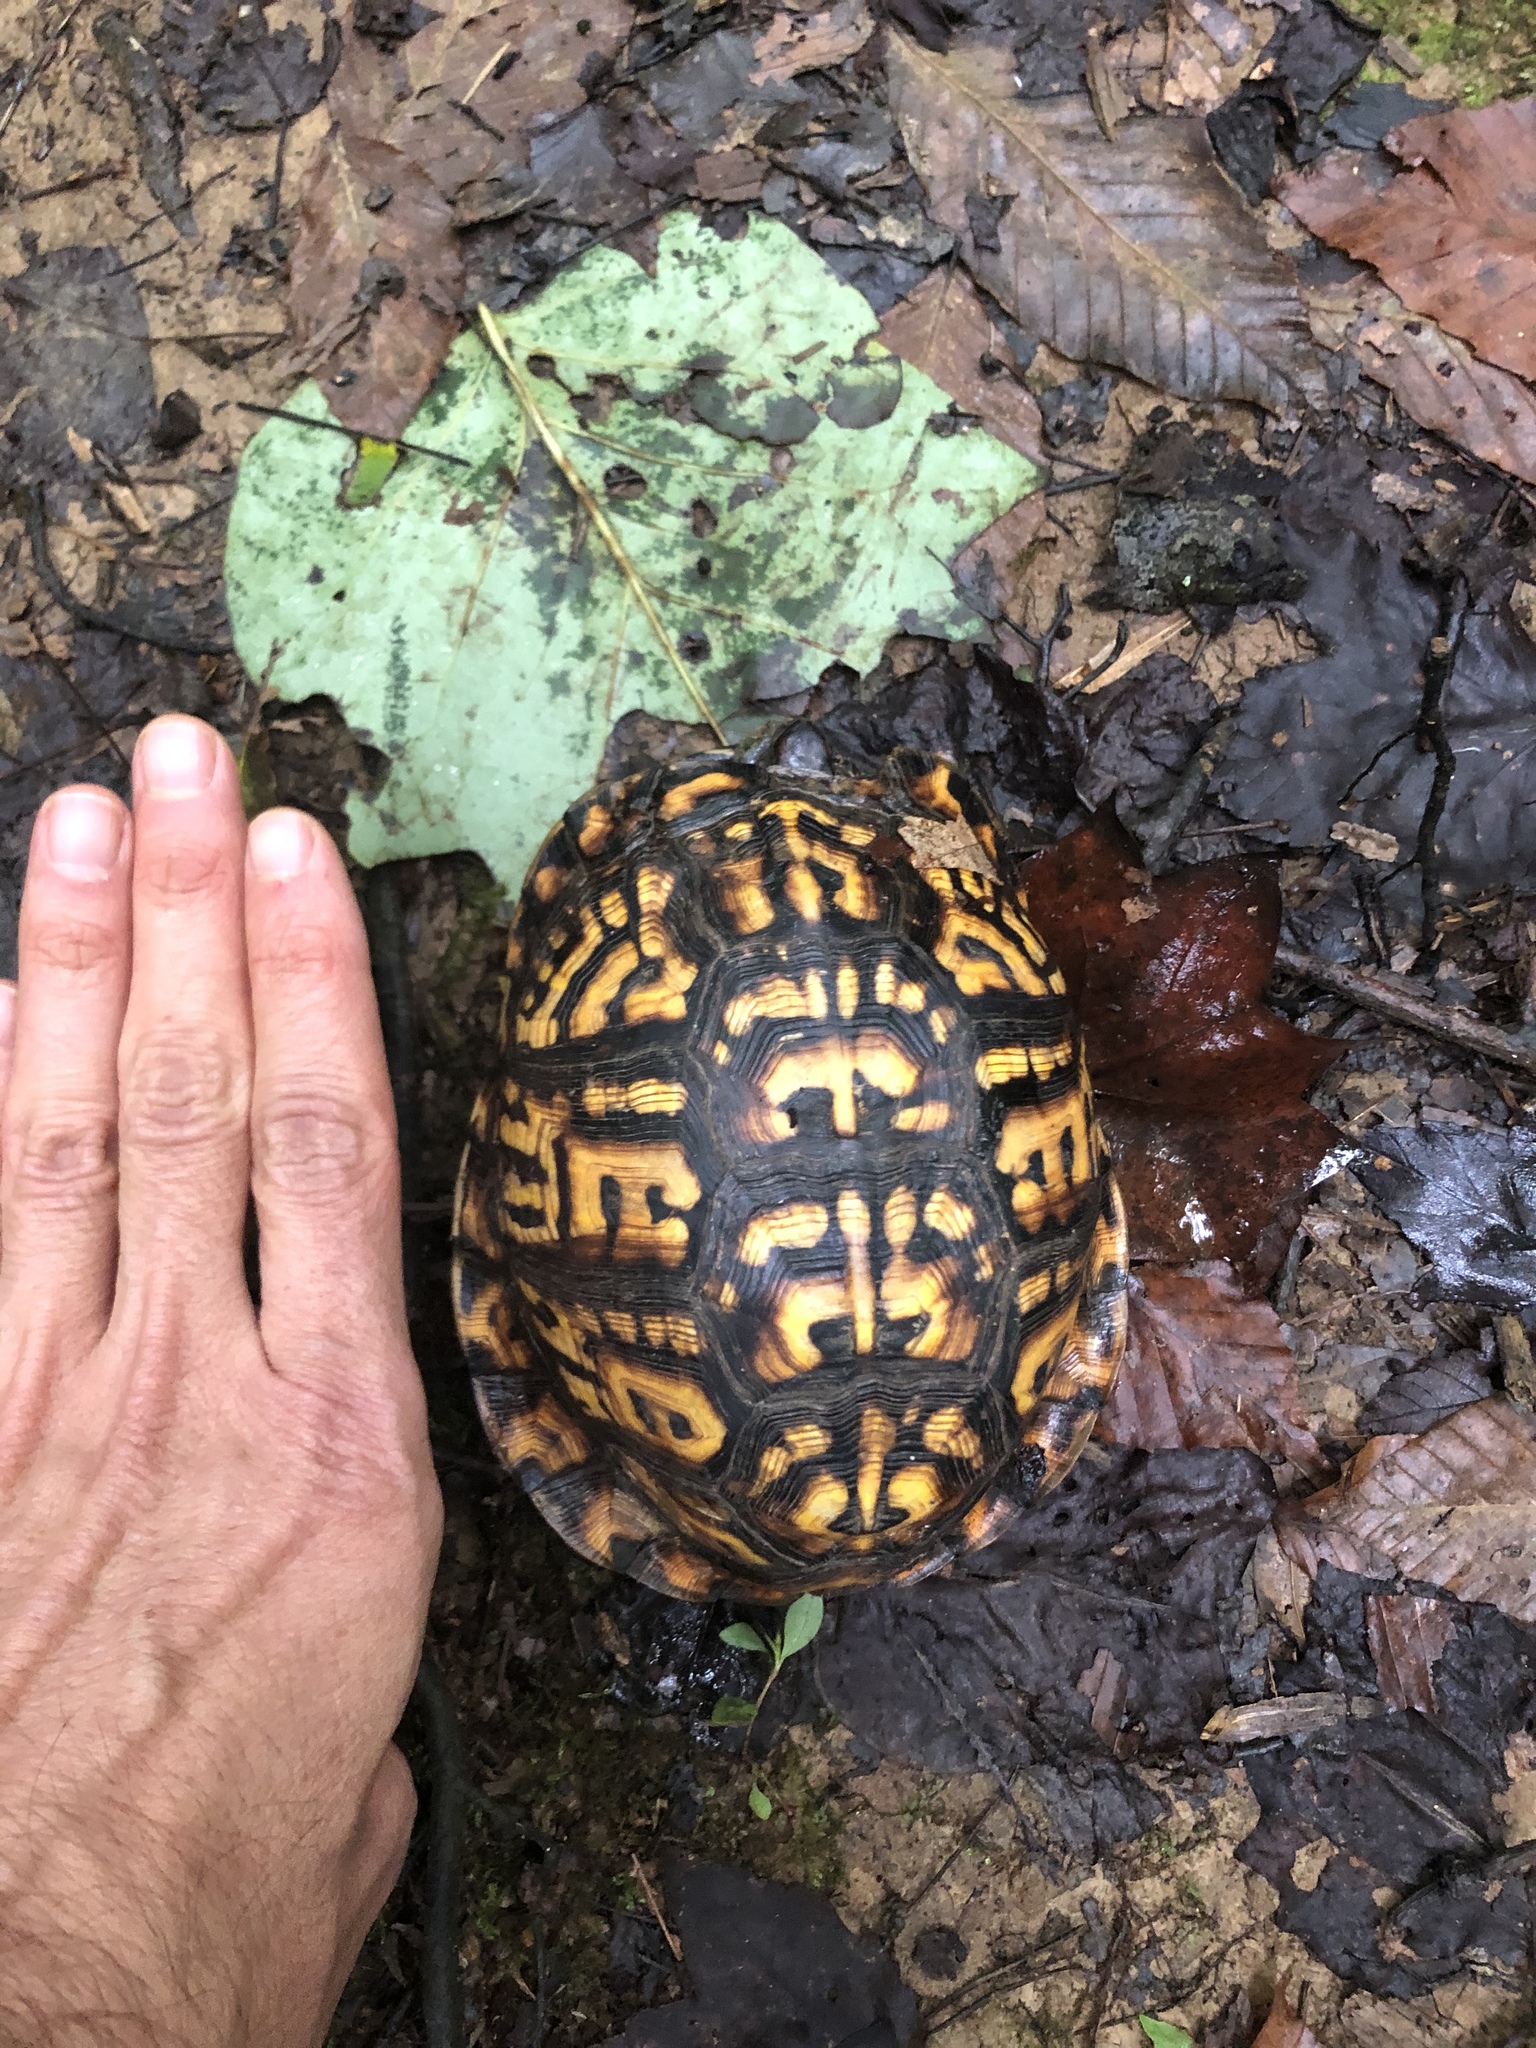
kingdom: Animalia
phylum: Chordata
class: Testudines
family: Emydidae
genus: Terrapene
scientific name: Terrapene carolina
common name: Common box turtle
